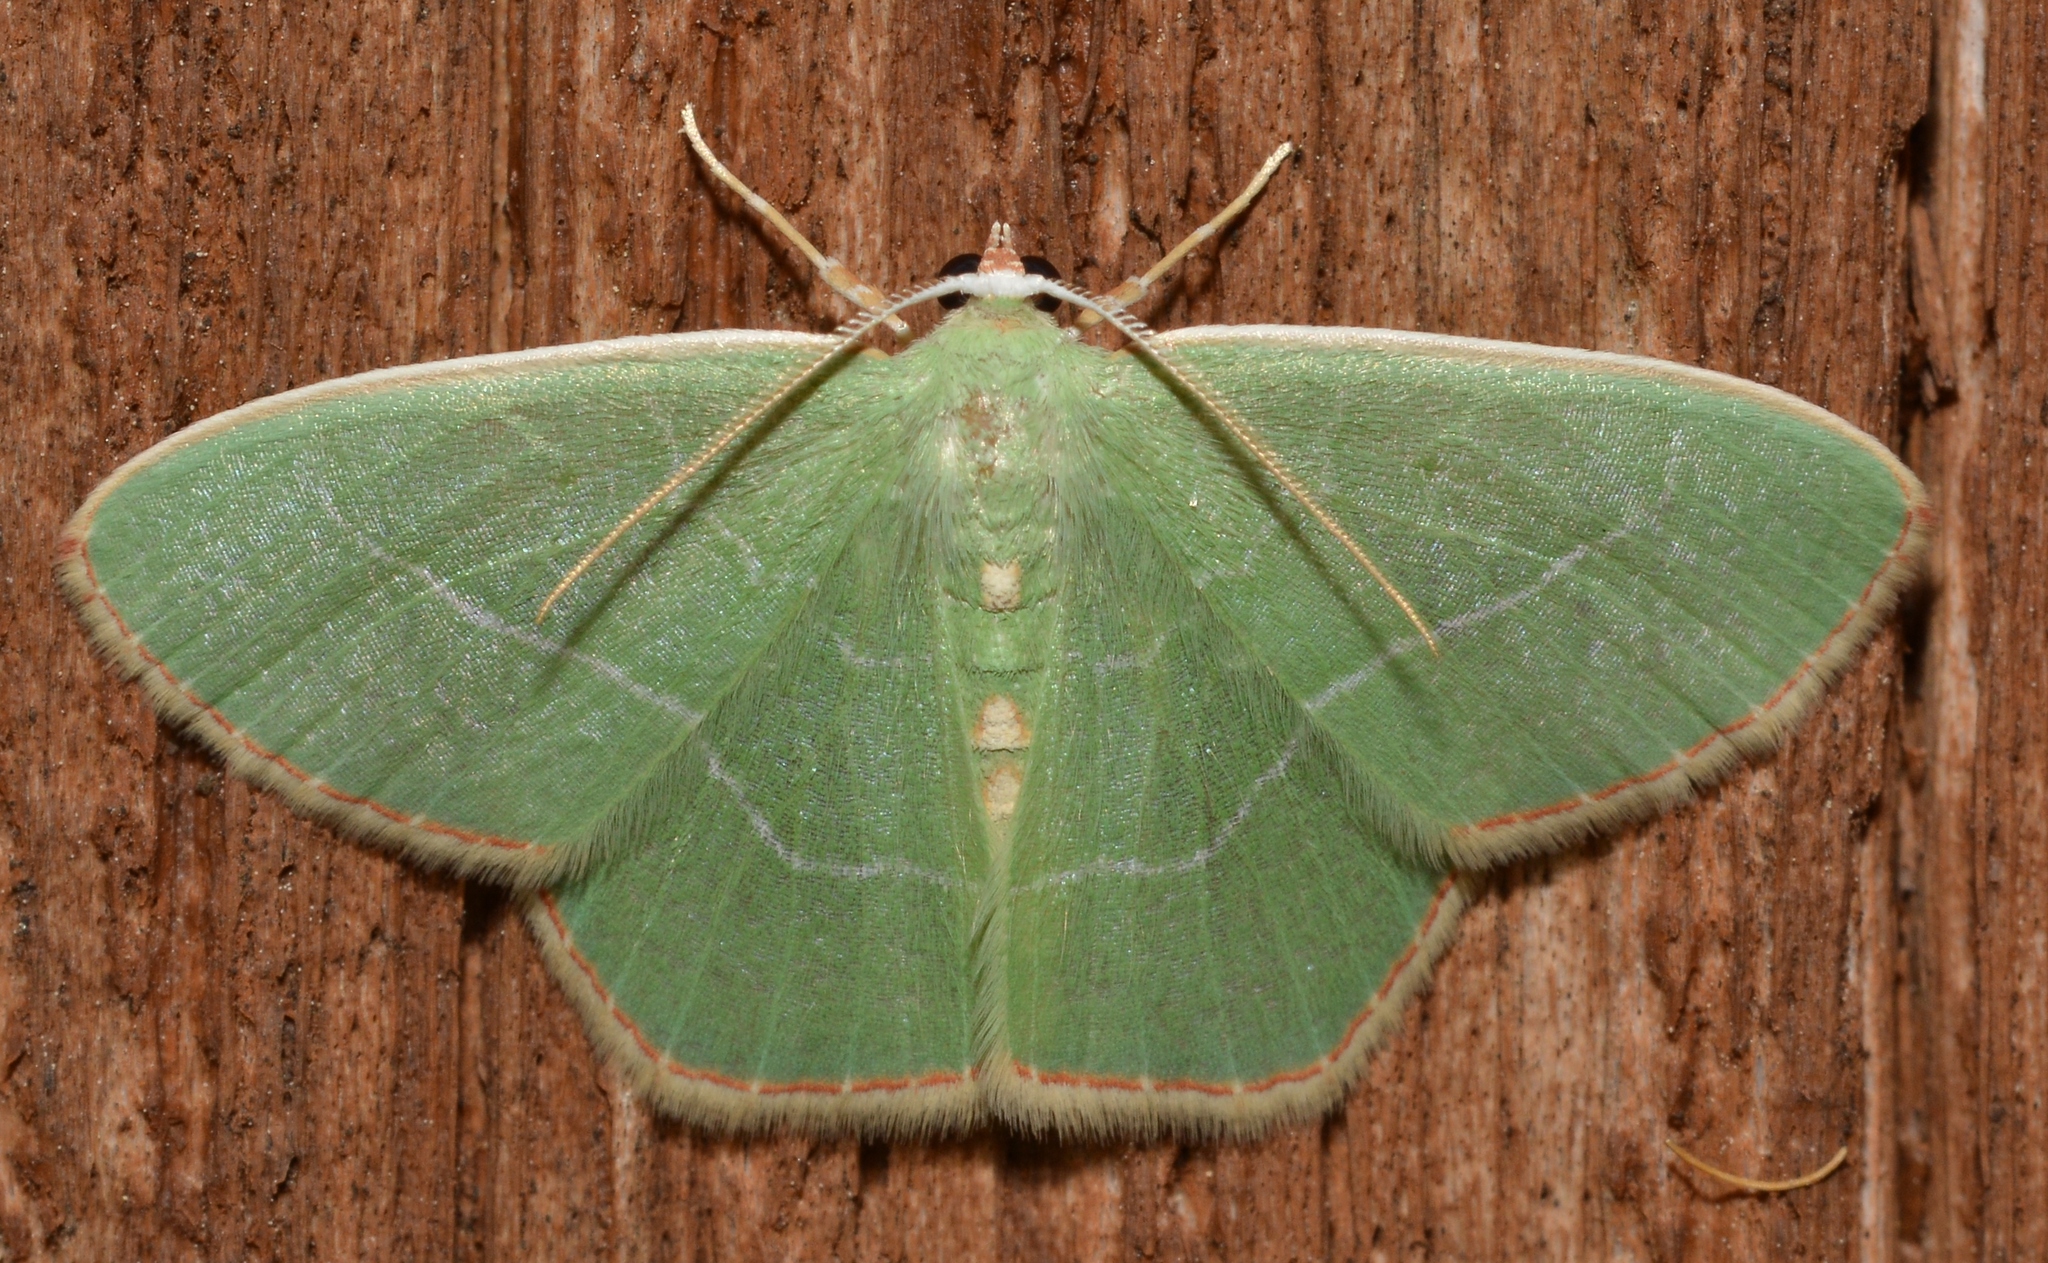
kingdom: Animalia
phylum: Arthropoda
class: Insecta
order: Lepidoptera
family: Geometridae
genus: Nemoria
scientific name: Nemoria bistriaria
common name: Red-fringed emerald
